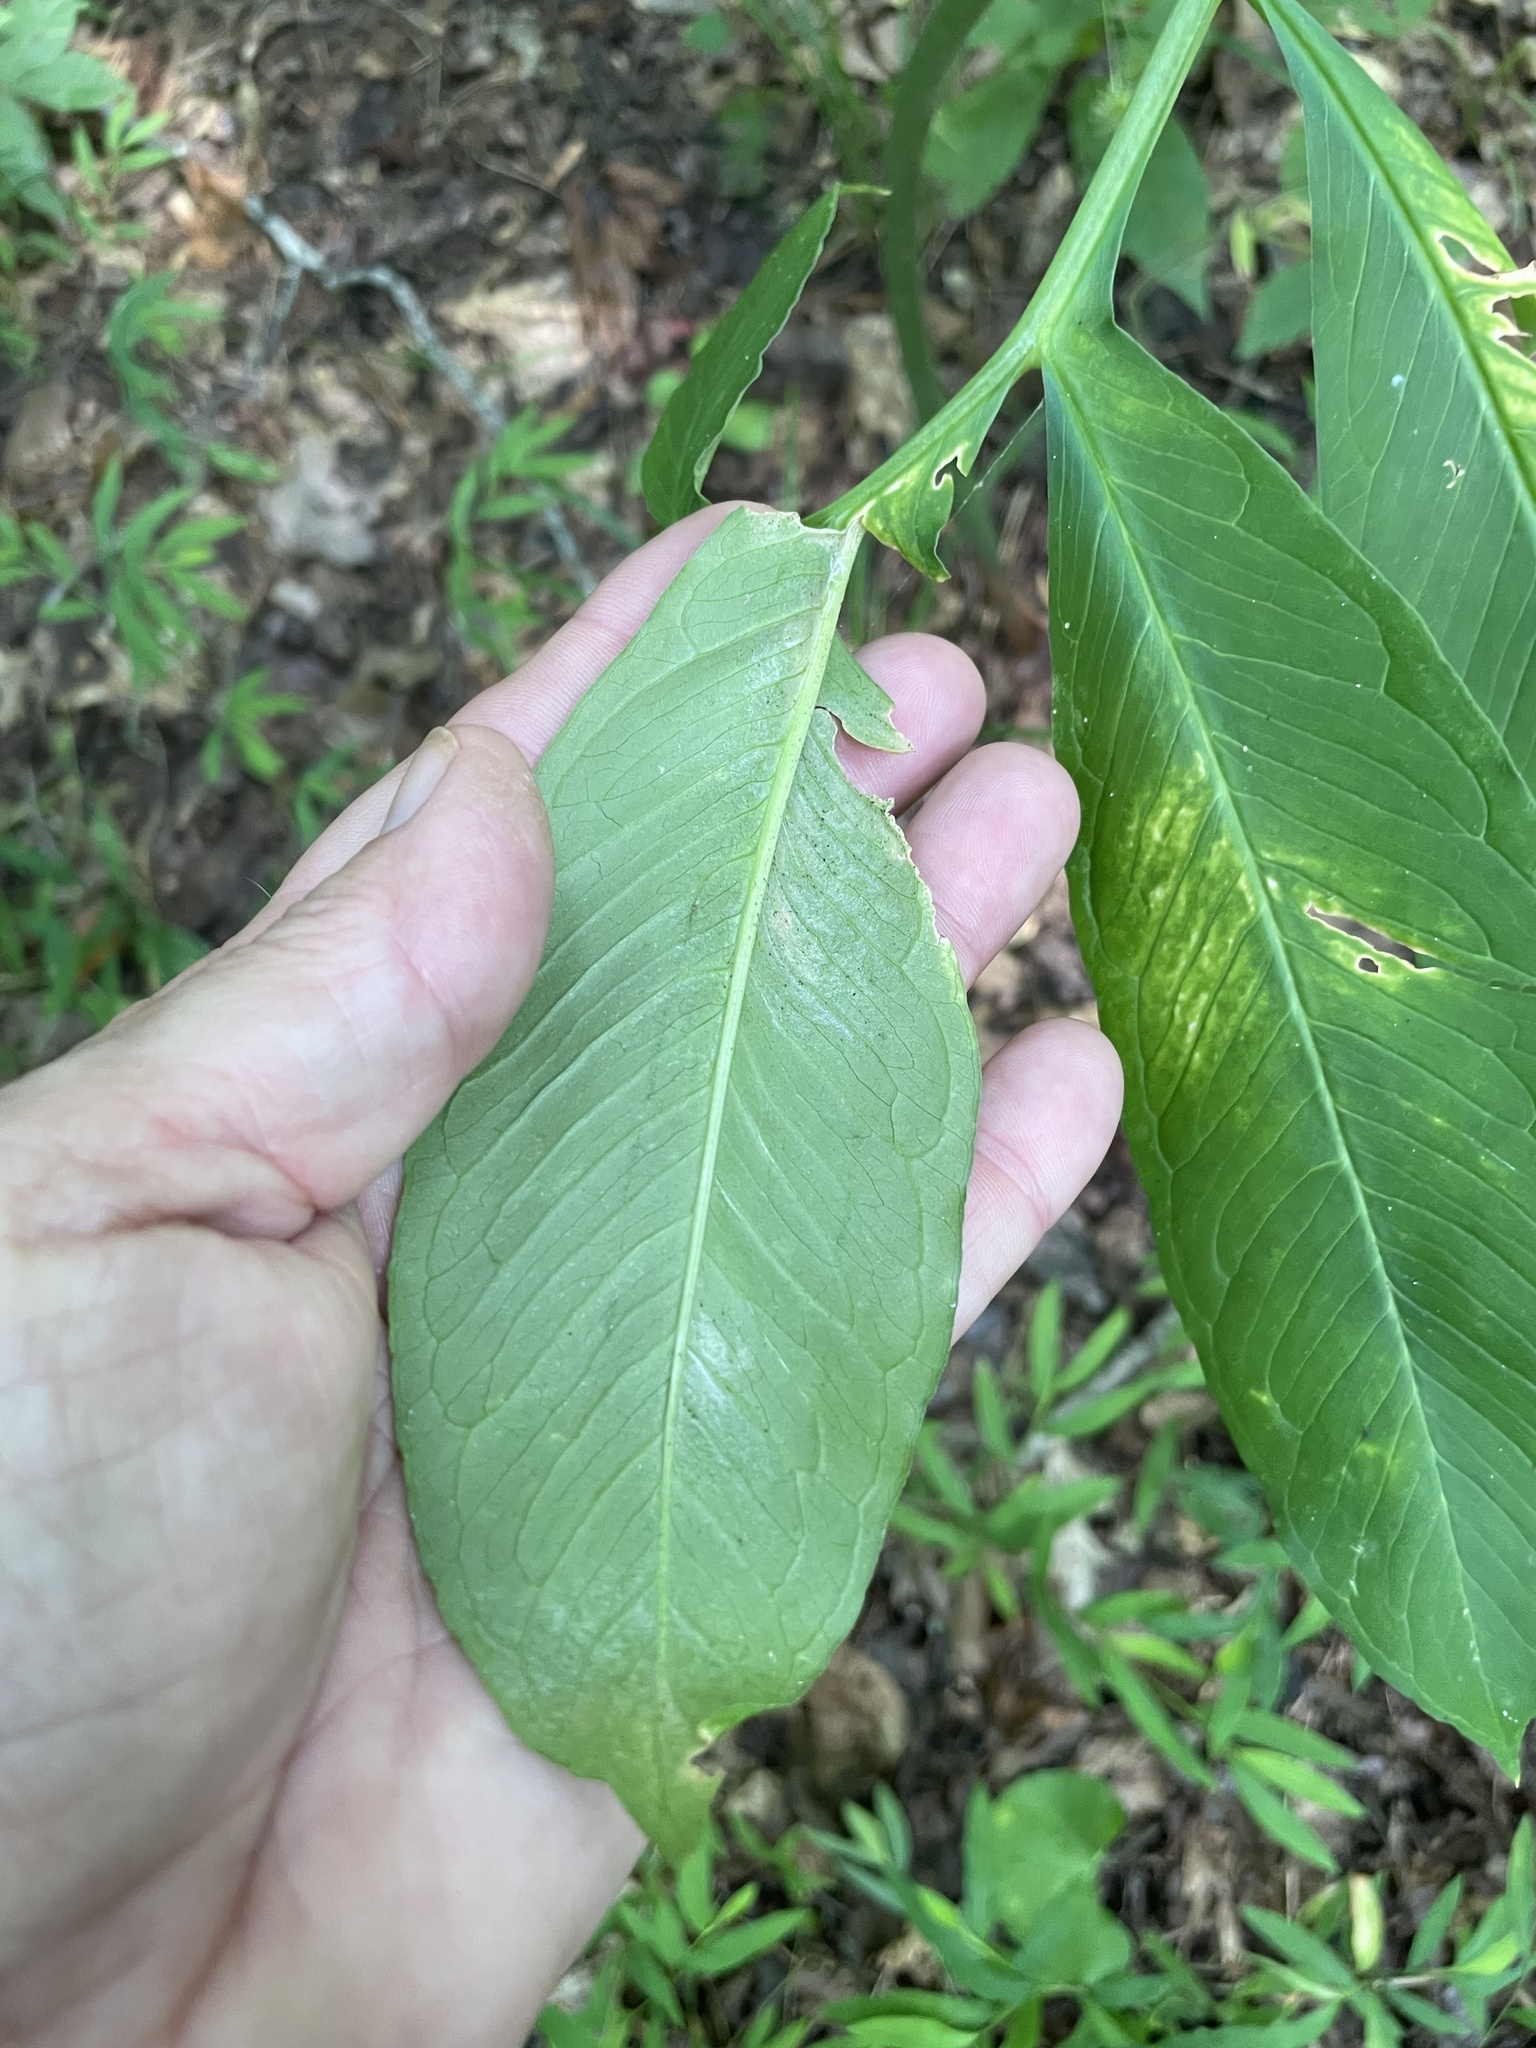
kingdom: Plantae
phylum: Tracheophyta
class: Liliopsida
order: Alismatales
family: Araceae
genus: Arisaema
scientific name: Arisaema dracontium
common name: Dragon-arum
